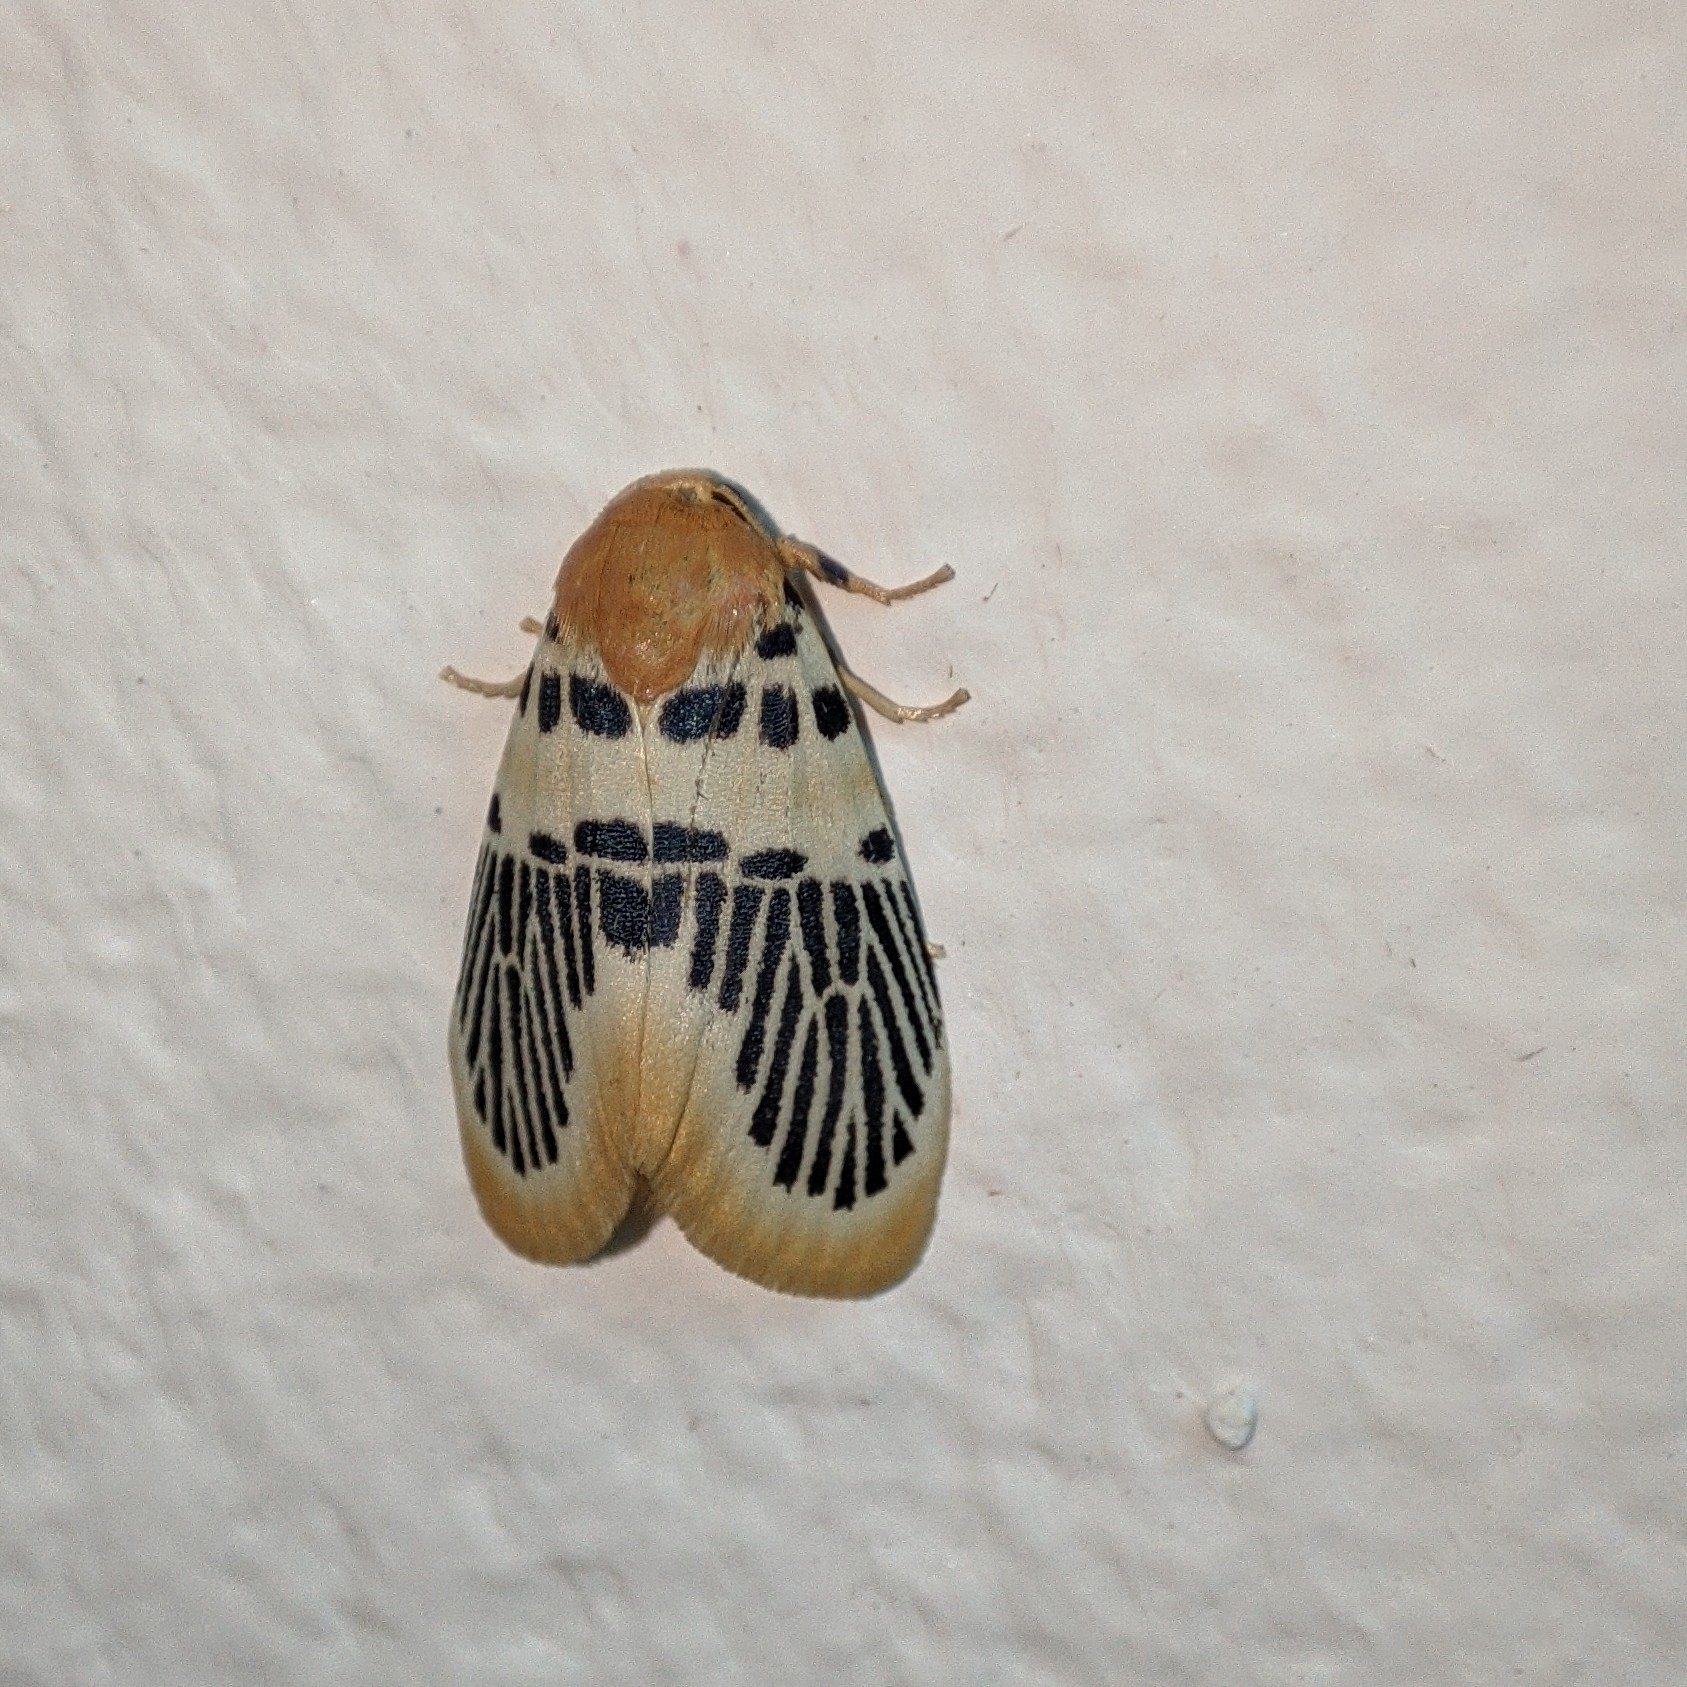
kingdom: Animalia
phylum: Arthropoda
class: Insecta
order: Lepidoptera
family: Erebidae
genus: Stigmatophora
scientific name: Stigmatophora hainanensis
